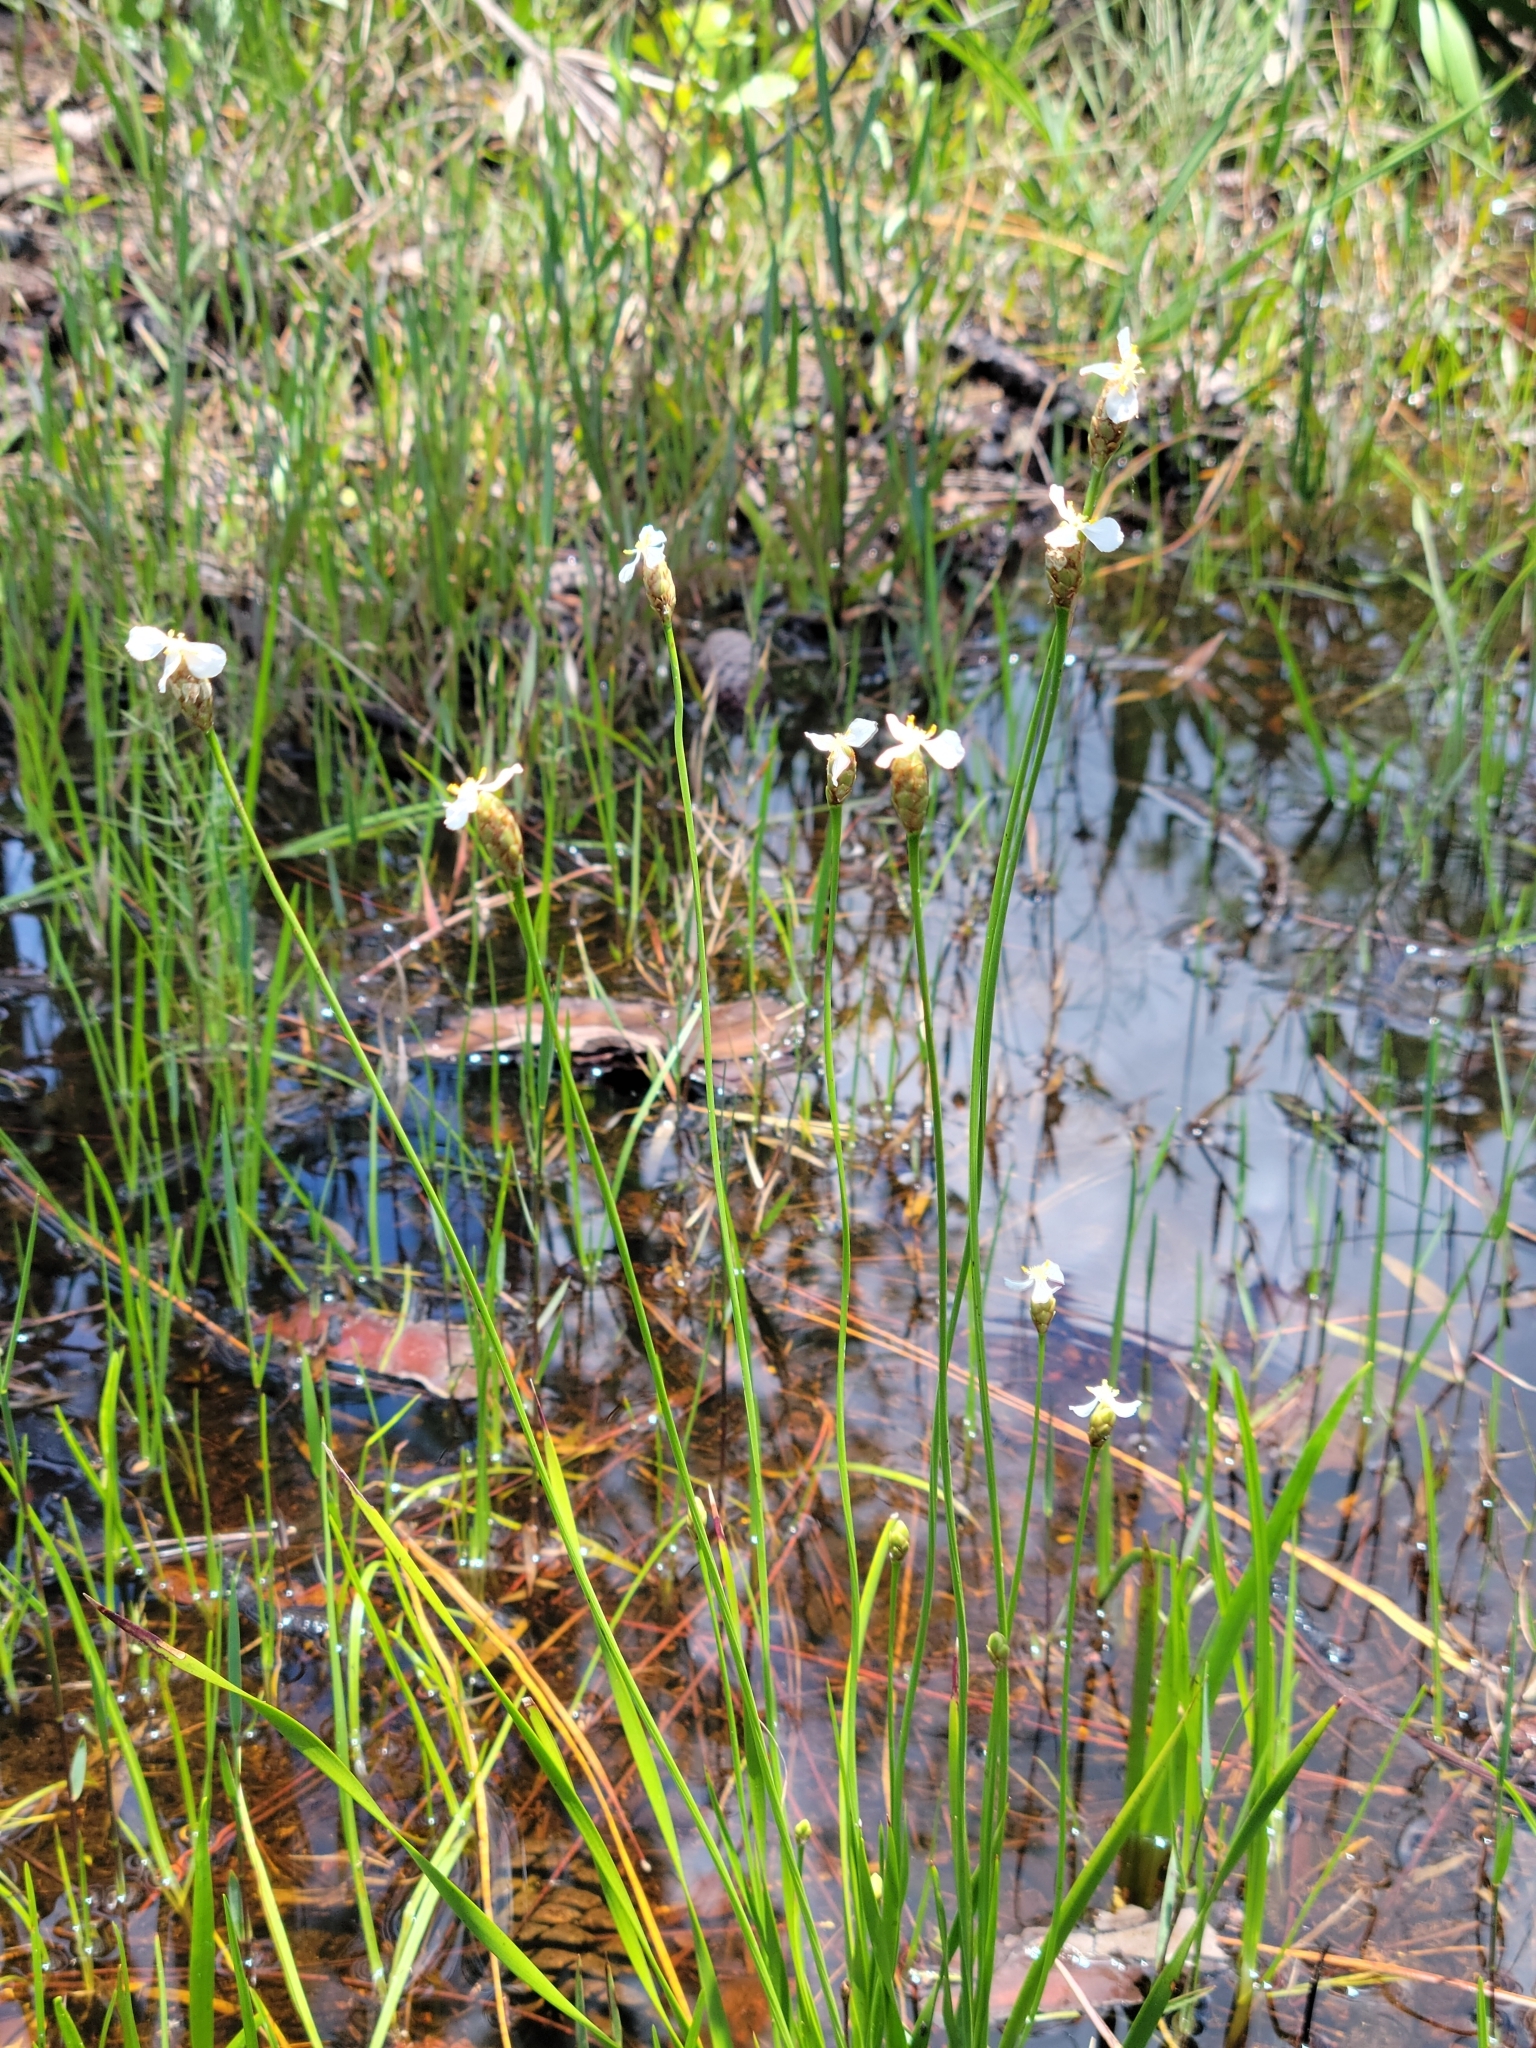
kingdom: Plantae
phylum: Tracheophyta
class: Liliopsida
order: Poales
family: Xyridaceae
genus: Xyris
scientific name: Xyris caroliniana
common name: Carolina yellow-eyed-grass
